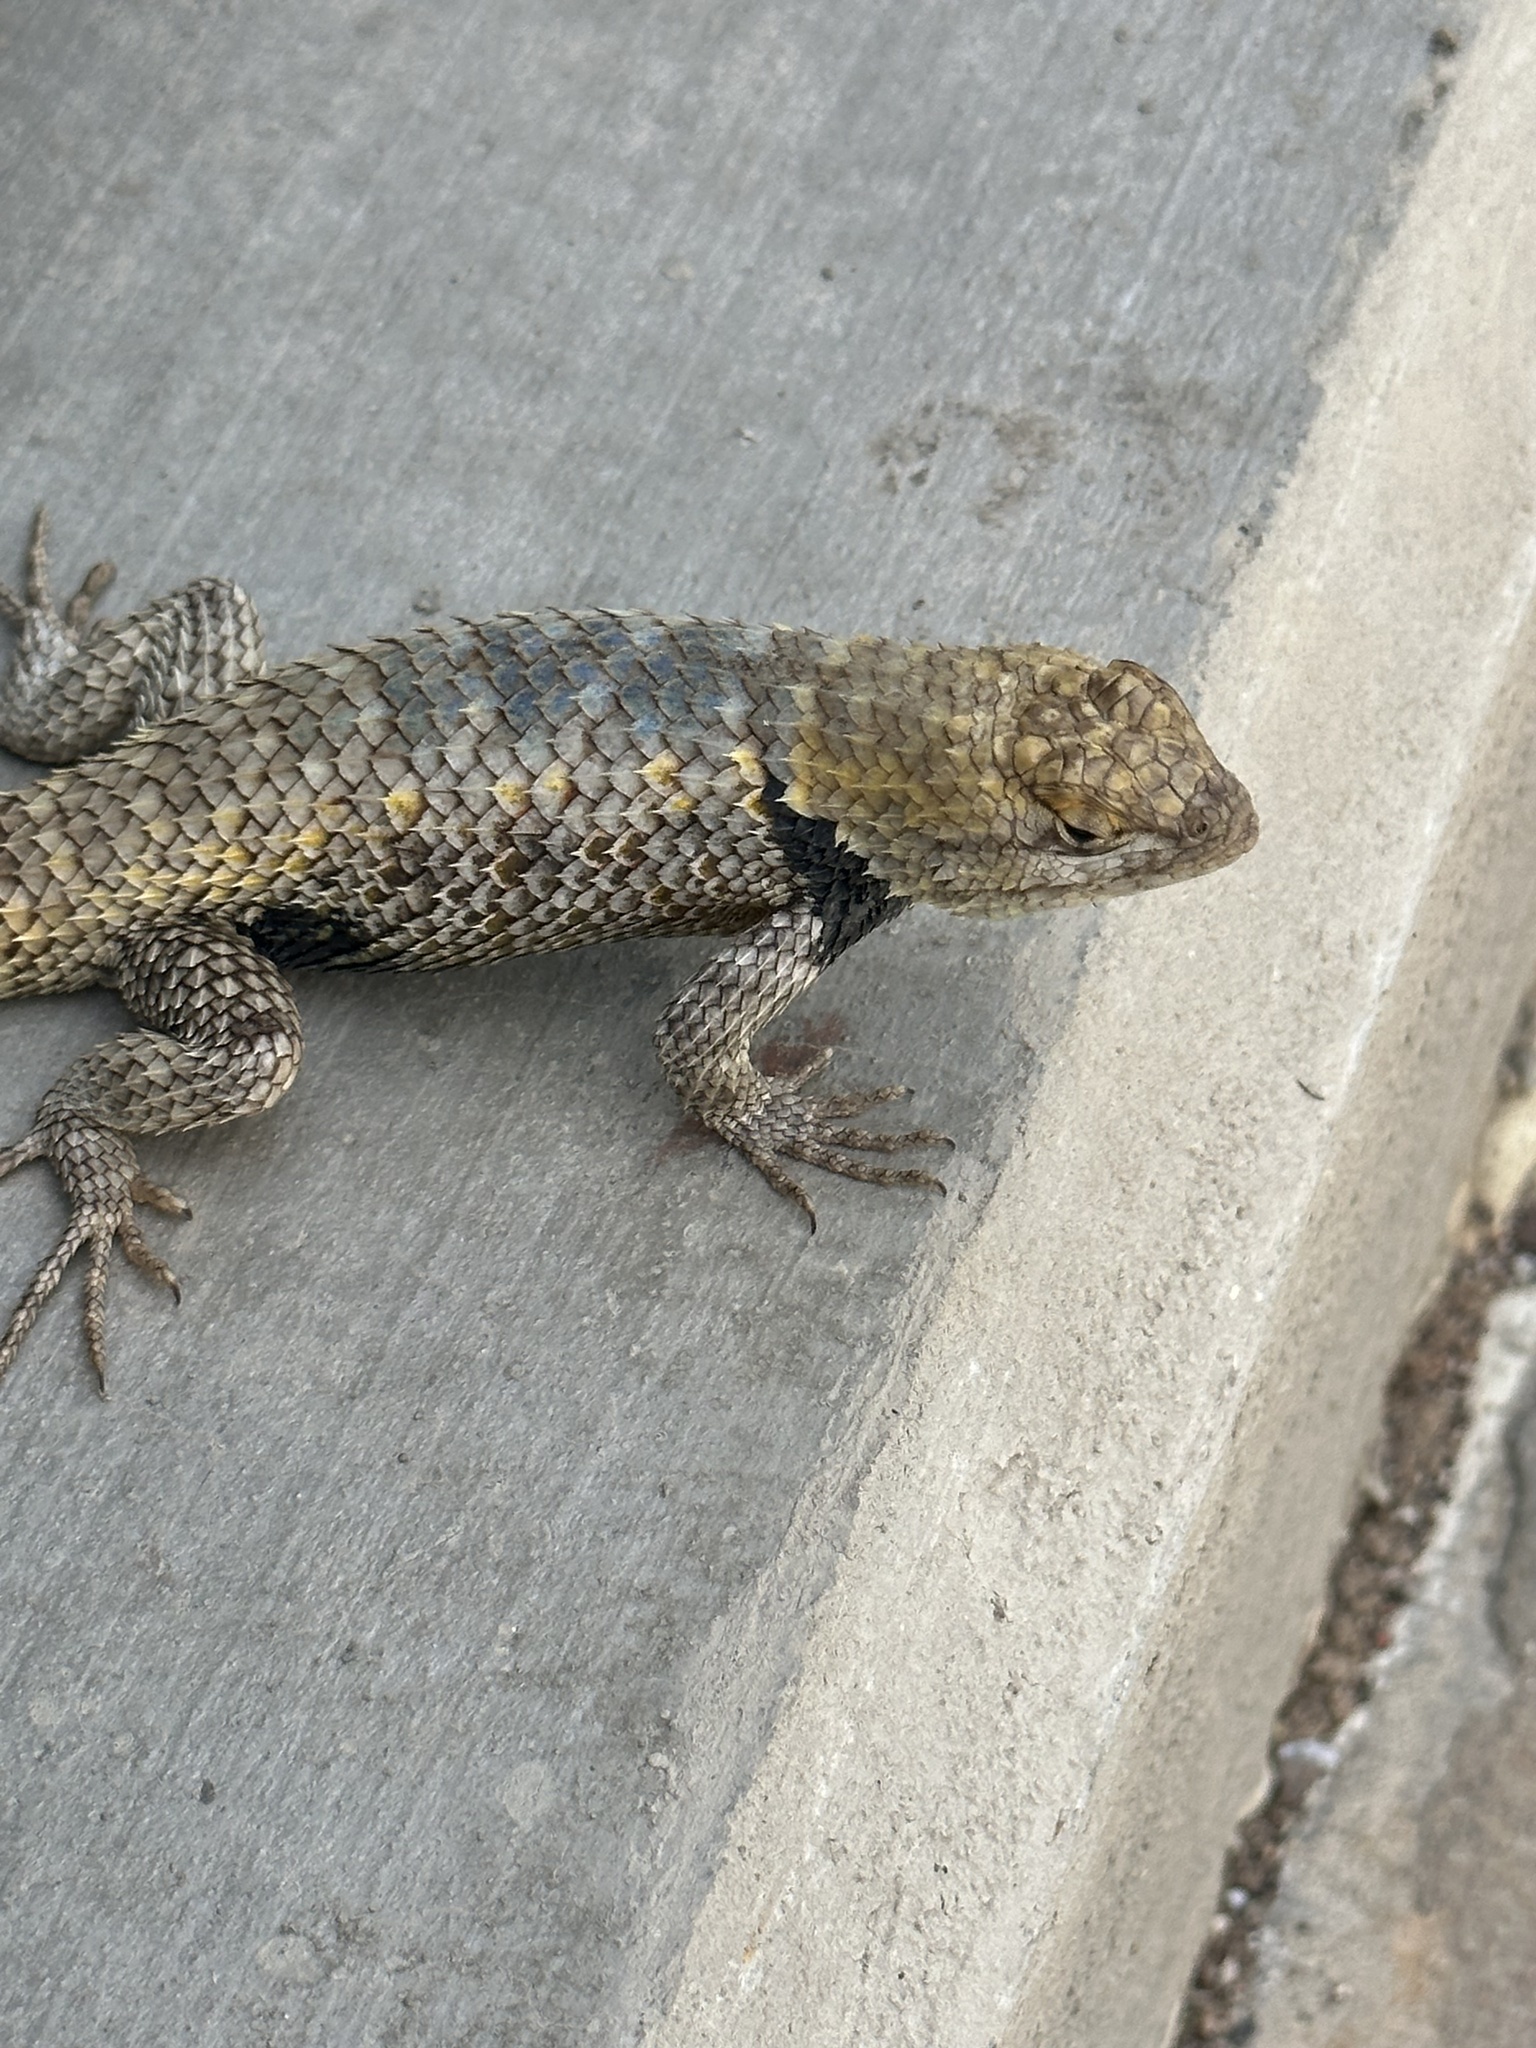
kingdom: Animalia
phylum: Chordata
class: Squamata
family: Phrynosomatidae
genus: Sceloporus
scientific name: Sceloporus magister
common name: Desert spiny lizard
